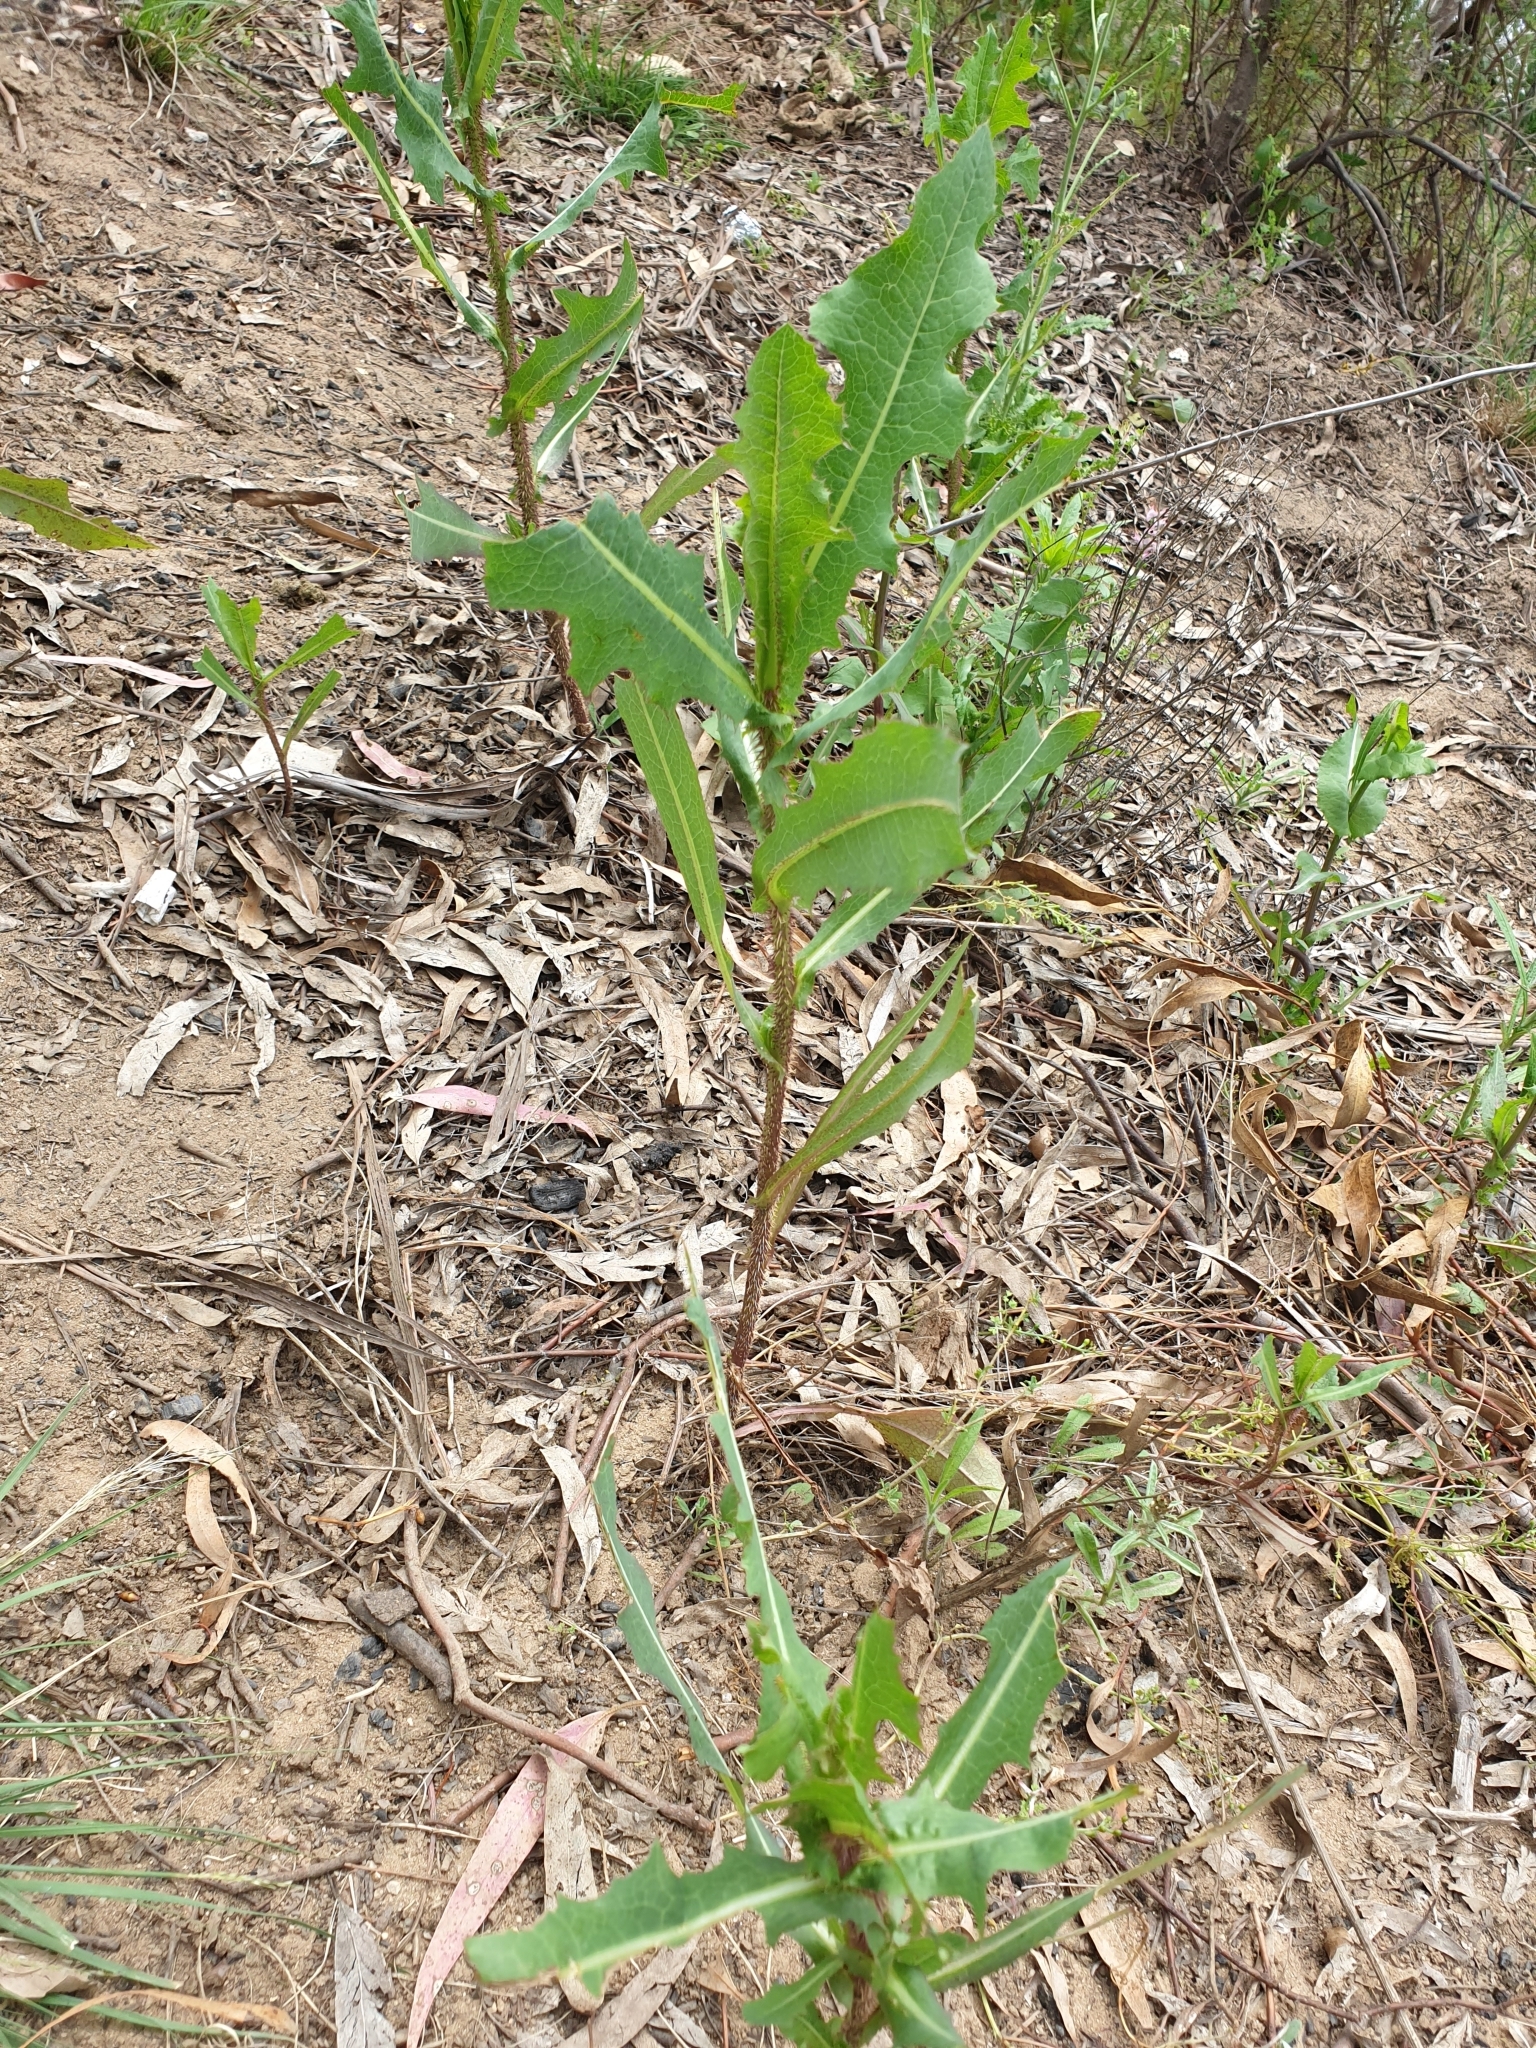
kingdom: Plantae
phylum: Tracheophyta
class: Magnoliopsida
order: Asterales
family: Asteraceae
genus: Lactuca
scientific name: Lactuca serriola
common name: Prickly lettuce
